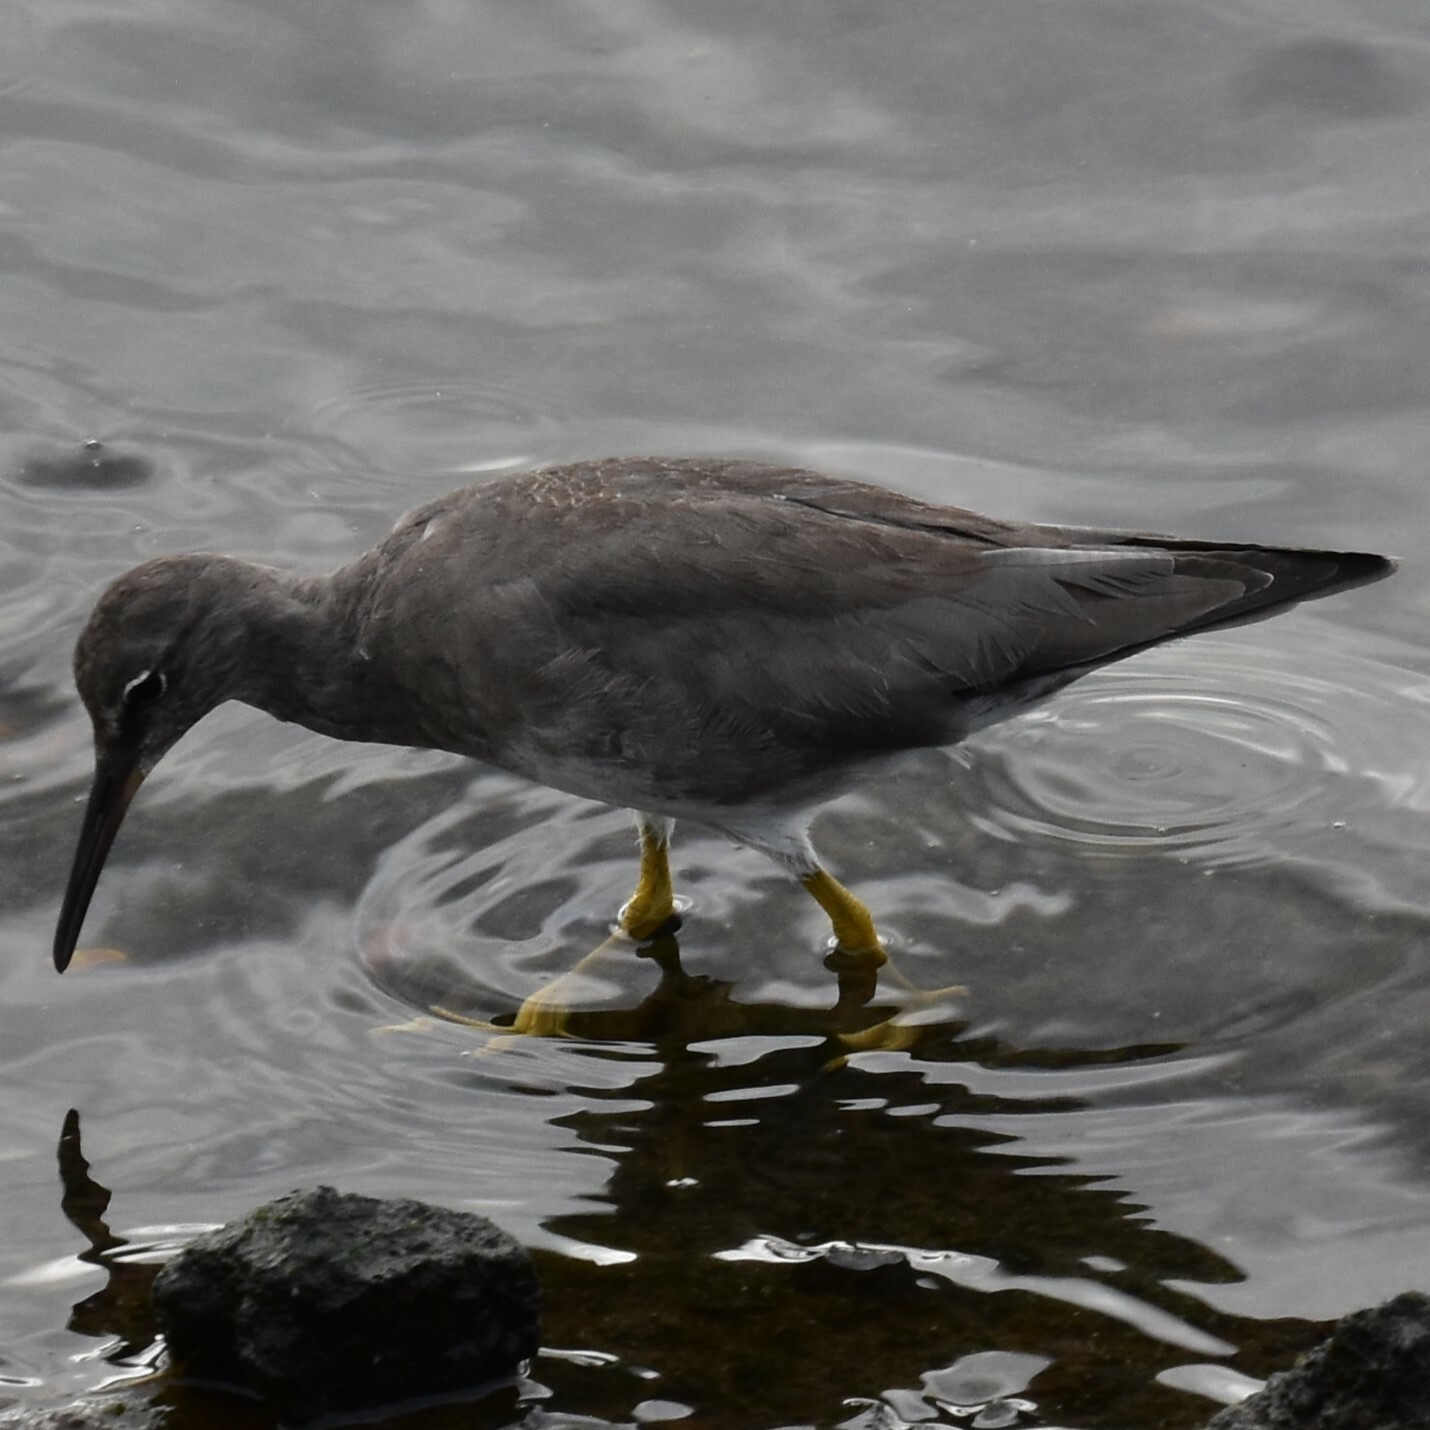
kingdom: Animalia
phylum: Chordata
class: Aves
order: Charadriiformes
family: Scolopacidae
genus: Tringa
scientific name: Tringa incana
